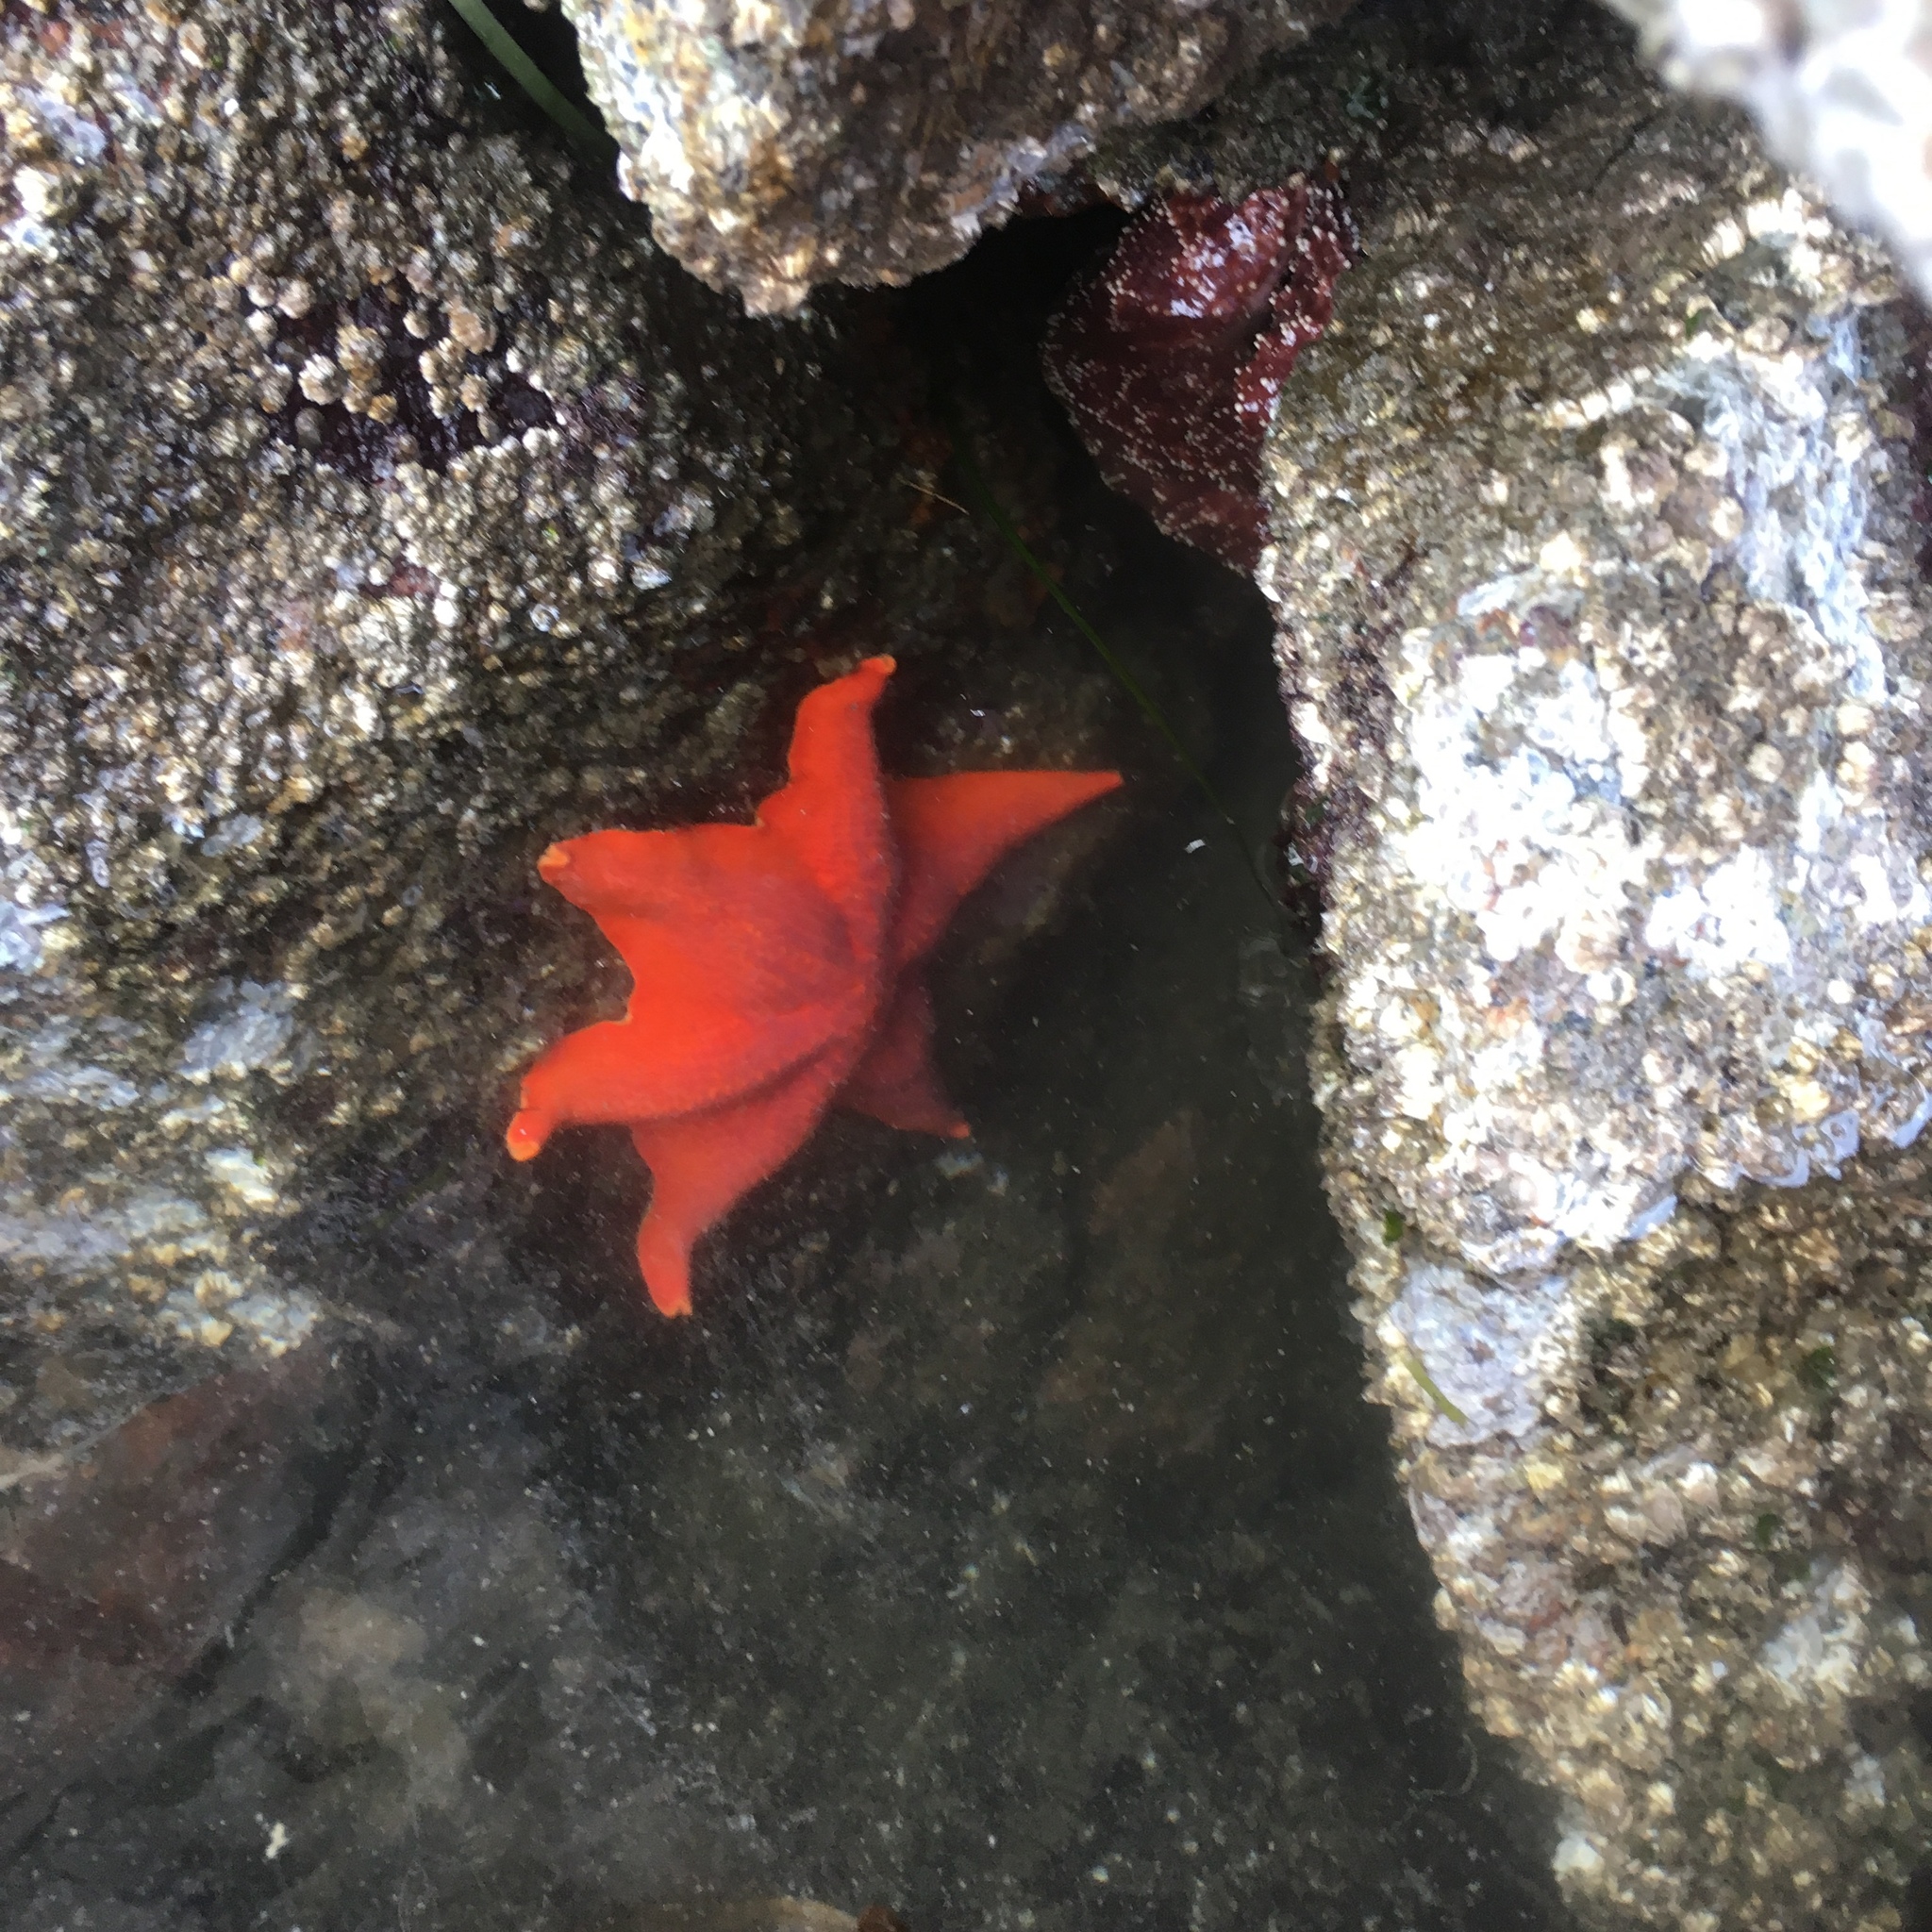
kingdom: Animalia
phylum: Echinodermata
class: Asteroidea
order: Valvatida
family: Asterinidae
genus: Patiria
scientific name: Patiria miniata
